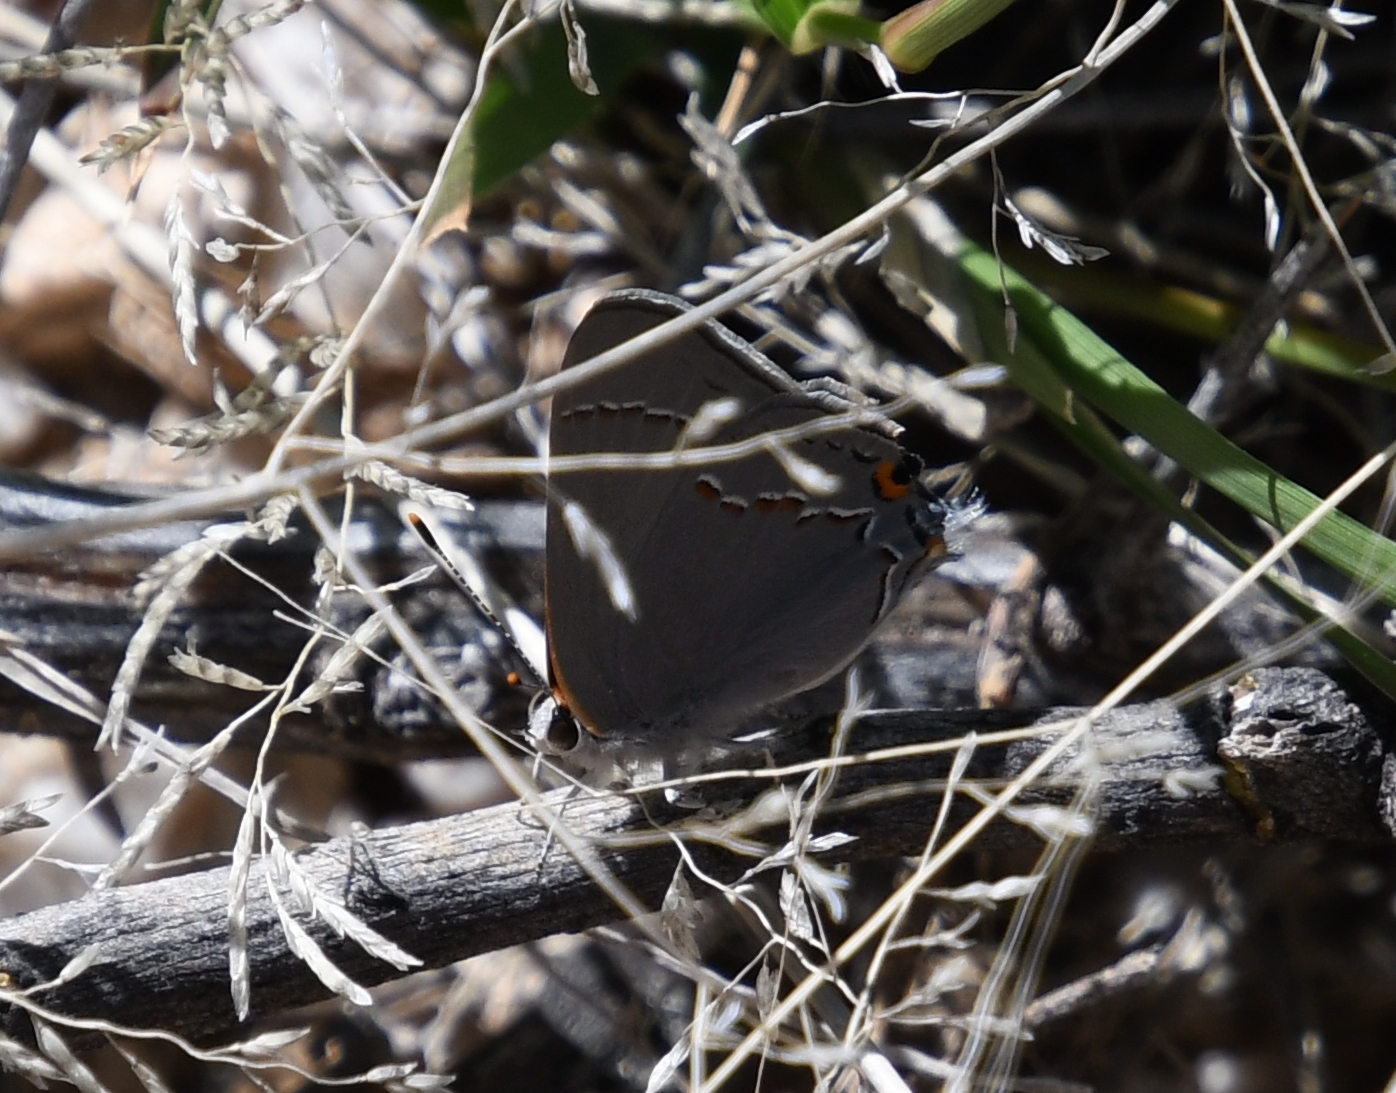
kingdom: Animalia
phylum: Arthropoda
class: Insecta
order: Lepidoptera
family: Lycaenidae
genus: Strymon
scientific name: Strymon melinus
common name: Gray hairstreak
